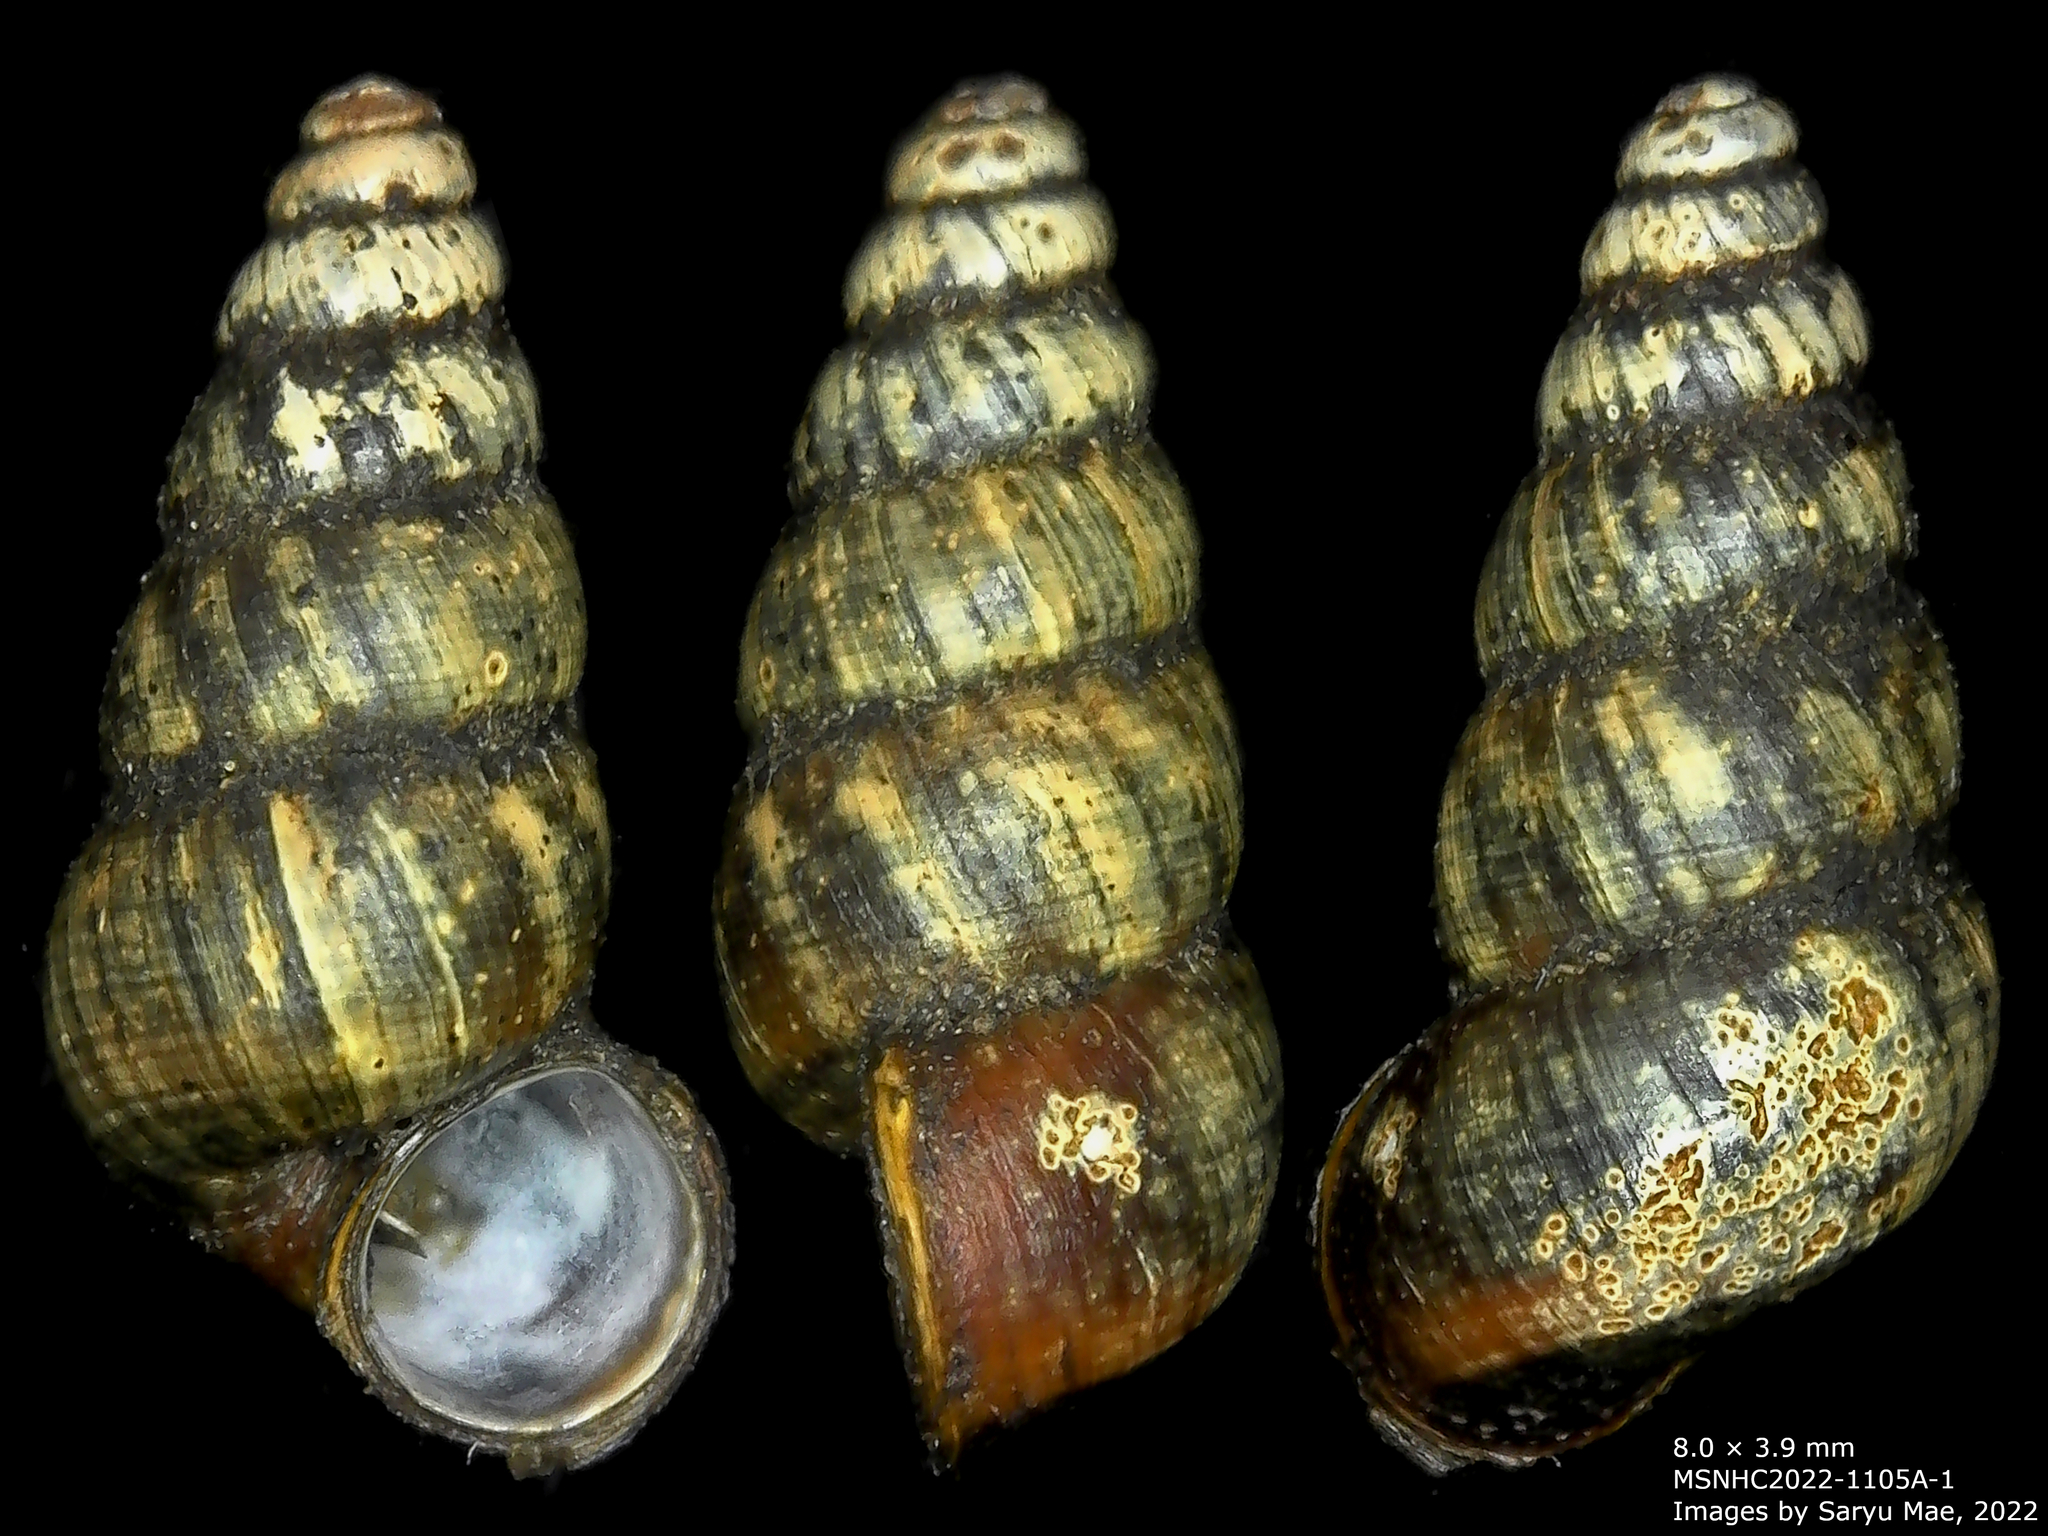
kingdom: Animalia
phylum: Mollusca
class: Gastropoda
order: Architaenioglossa
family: Pupinidae
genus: Liarea
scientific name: Liarea turriculata
